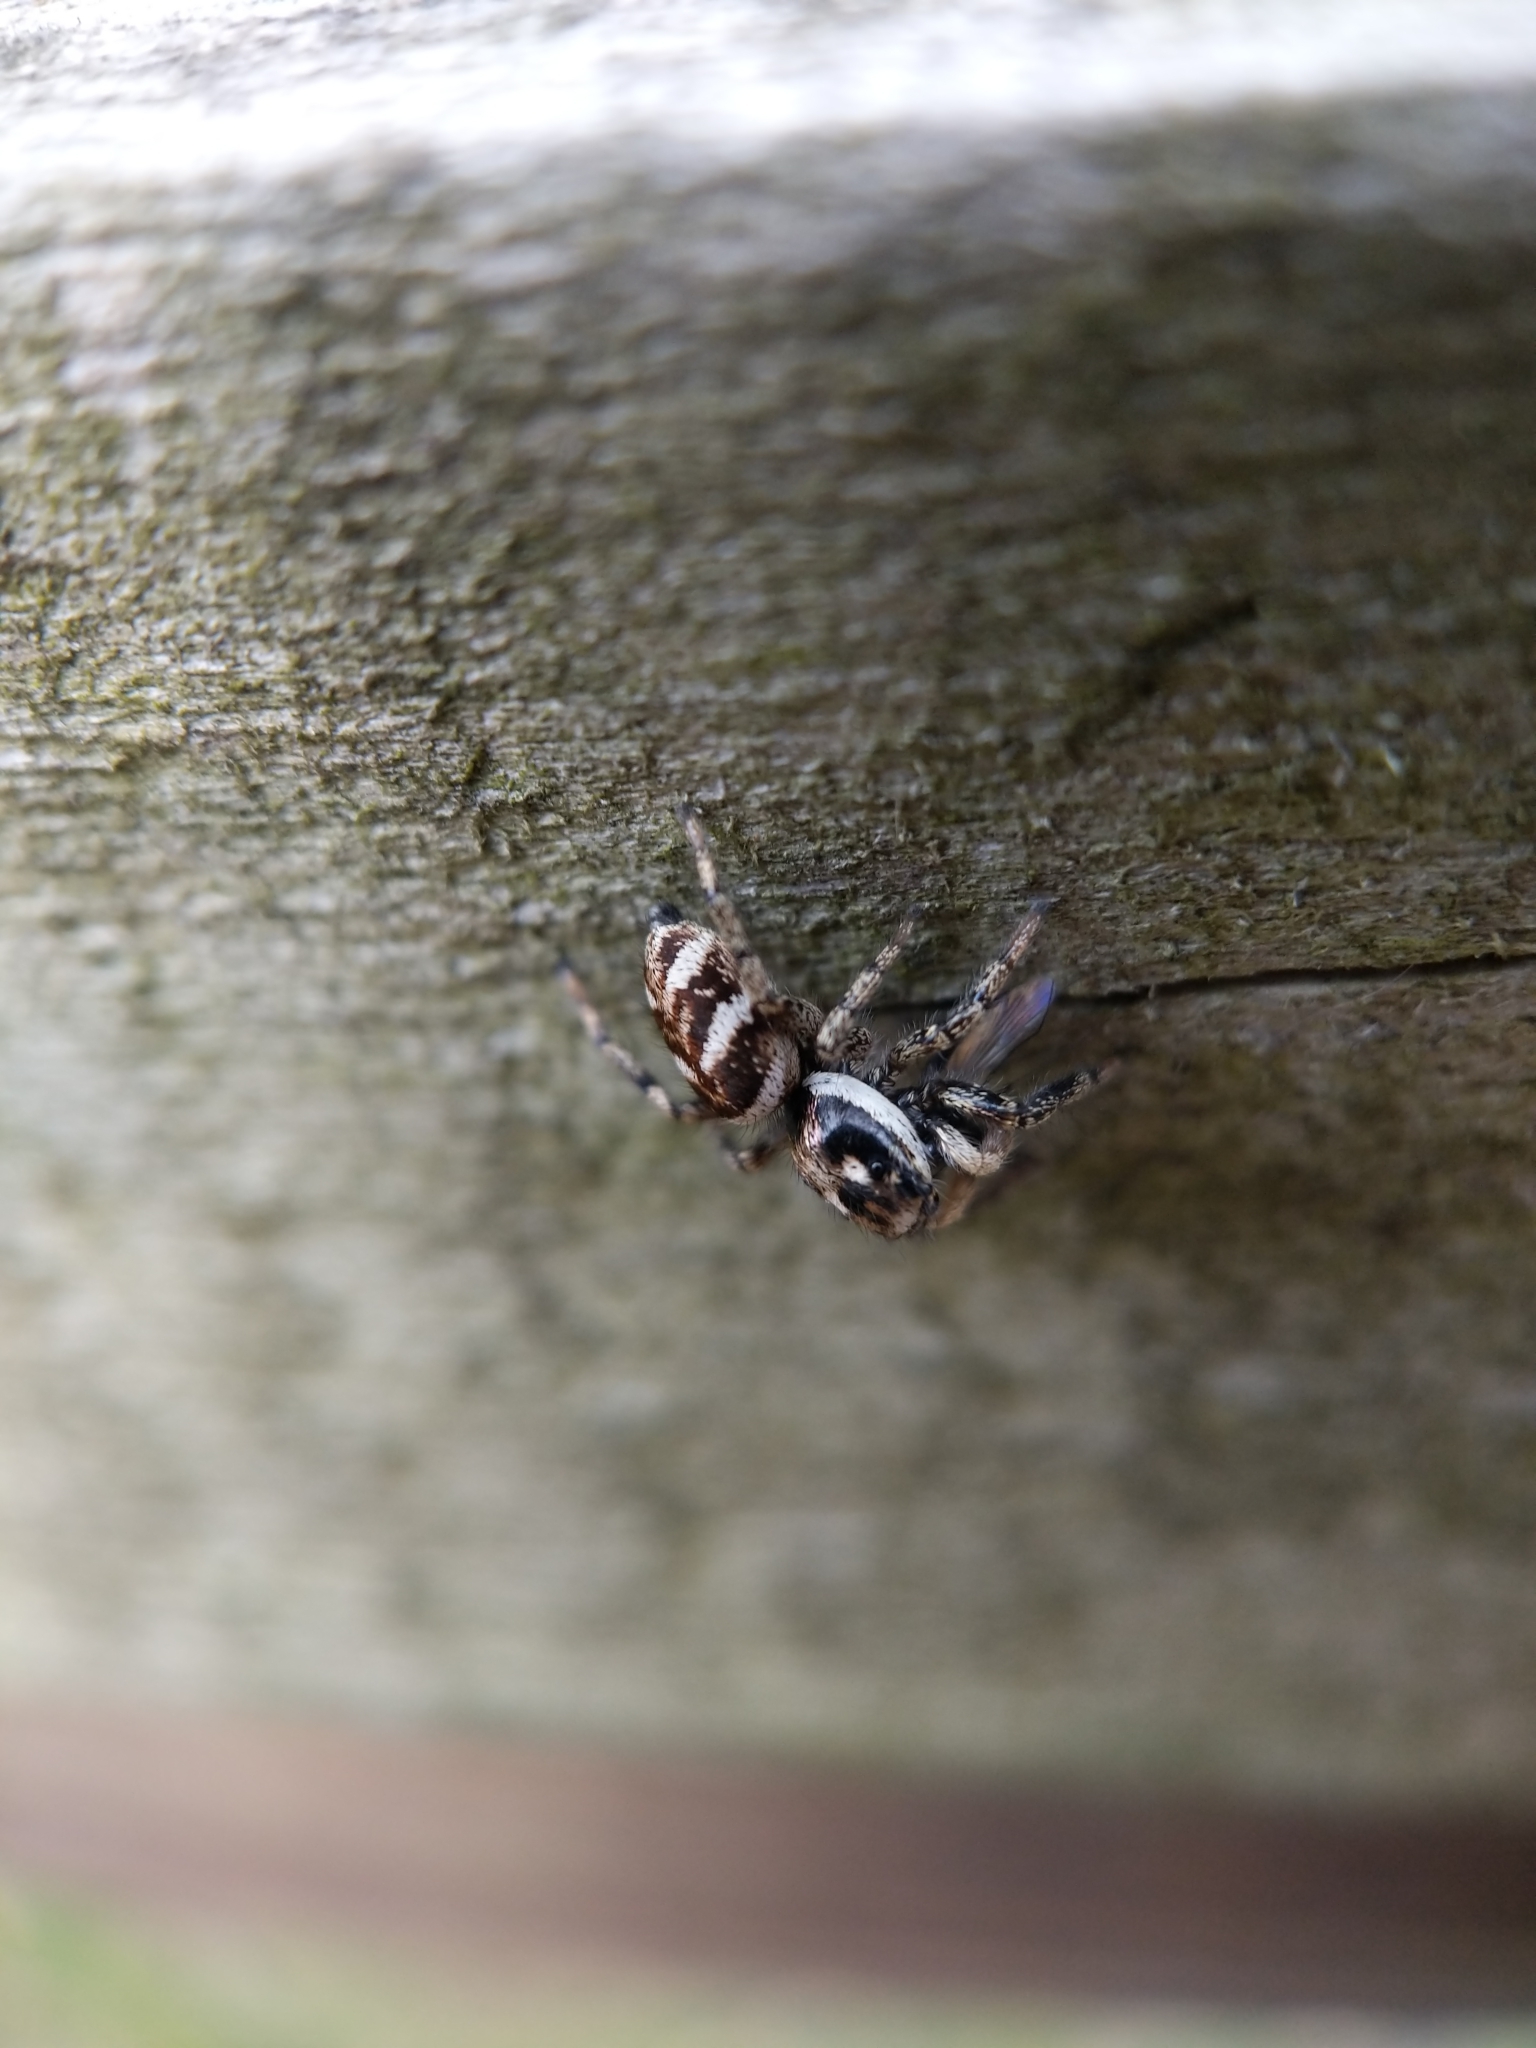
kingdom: Animalia
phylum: Arthropoda
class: Arachnida
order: Araneae
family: Salticidae
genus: Salticus
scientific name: Salticus scenicus
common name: Zebra jumper
